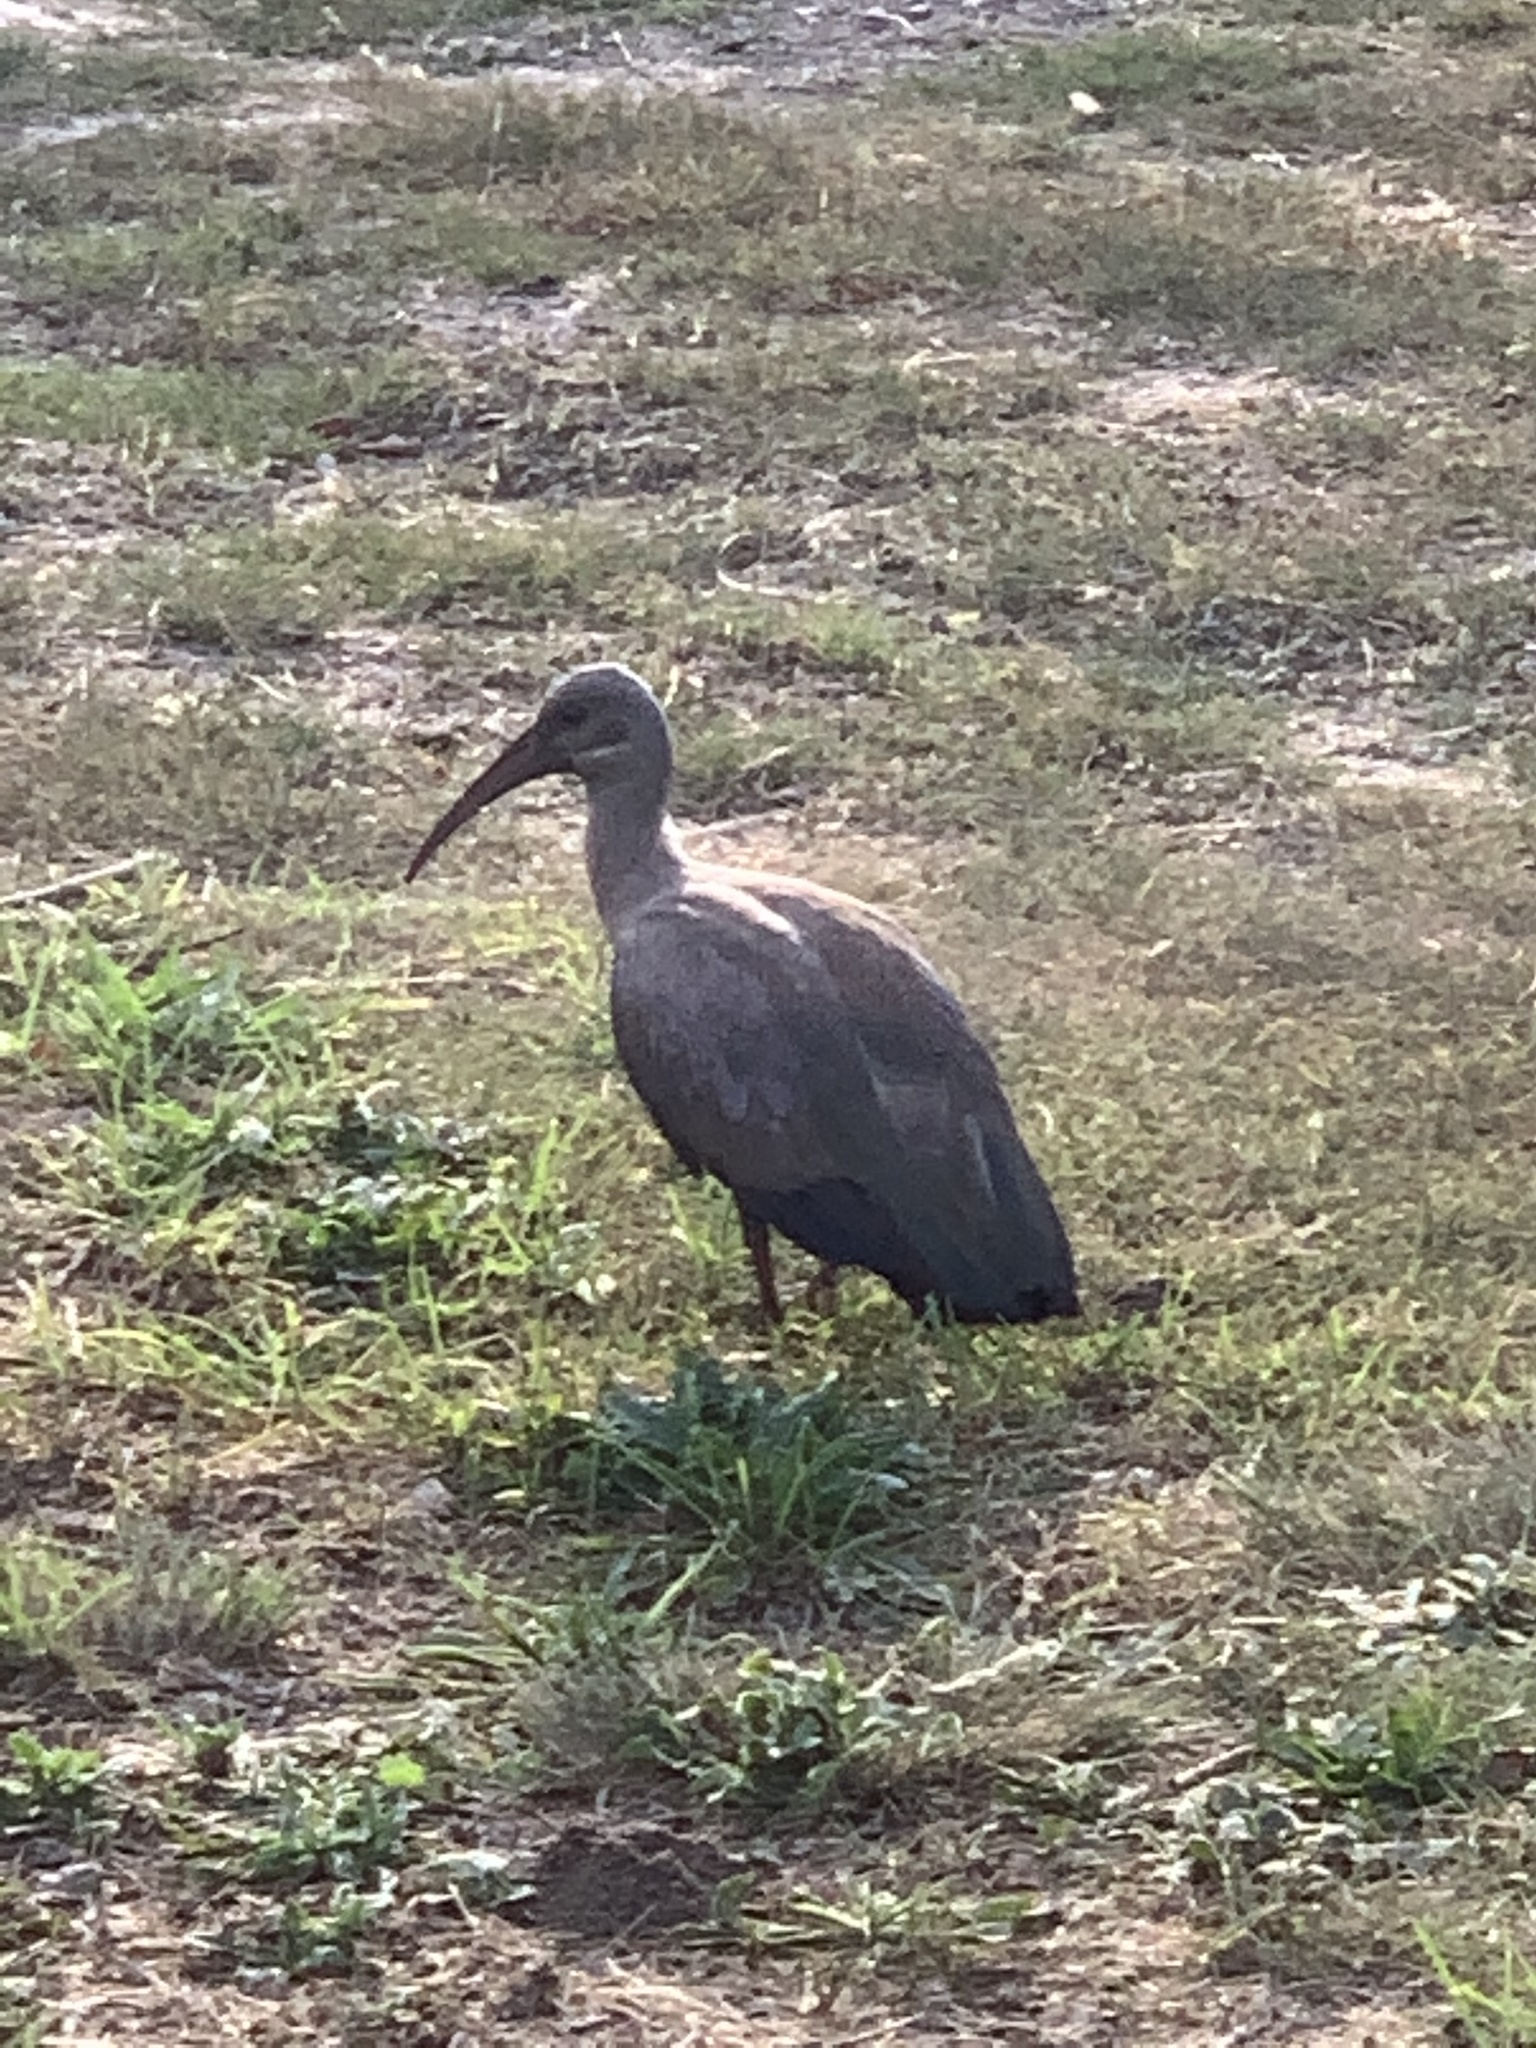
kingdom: Animalia
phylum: Chordata
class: Aves
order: Pelecaniformes
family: Threskiornithidae
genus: Bostrychia
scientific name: Bostrychia hagedash
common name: Hadada ibis
